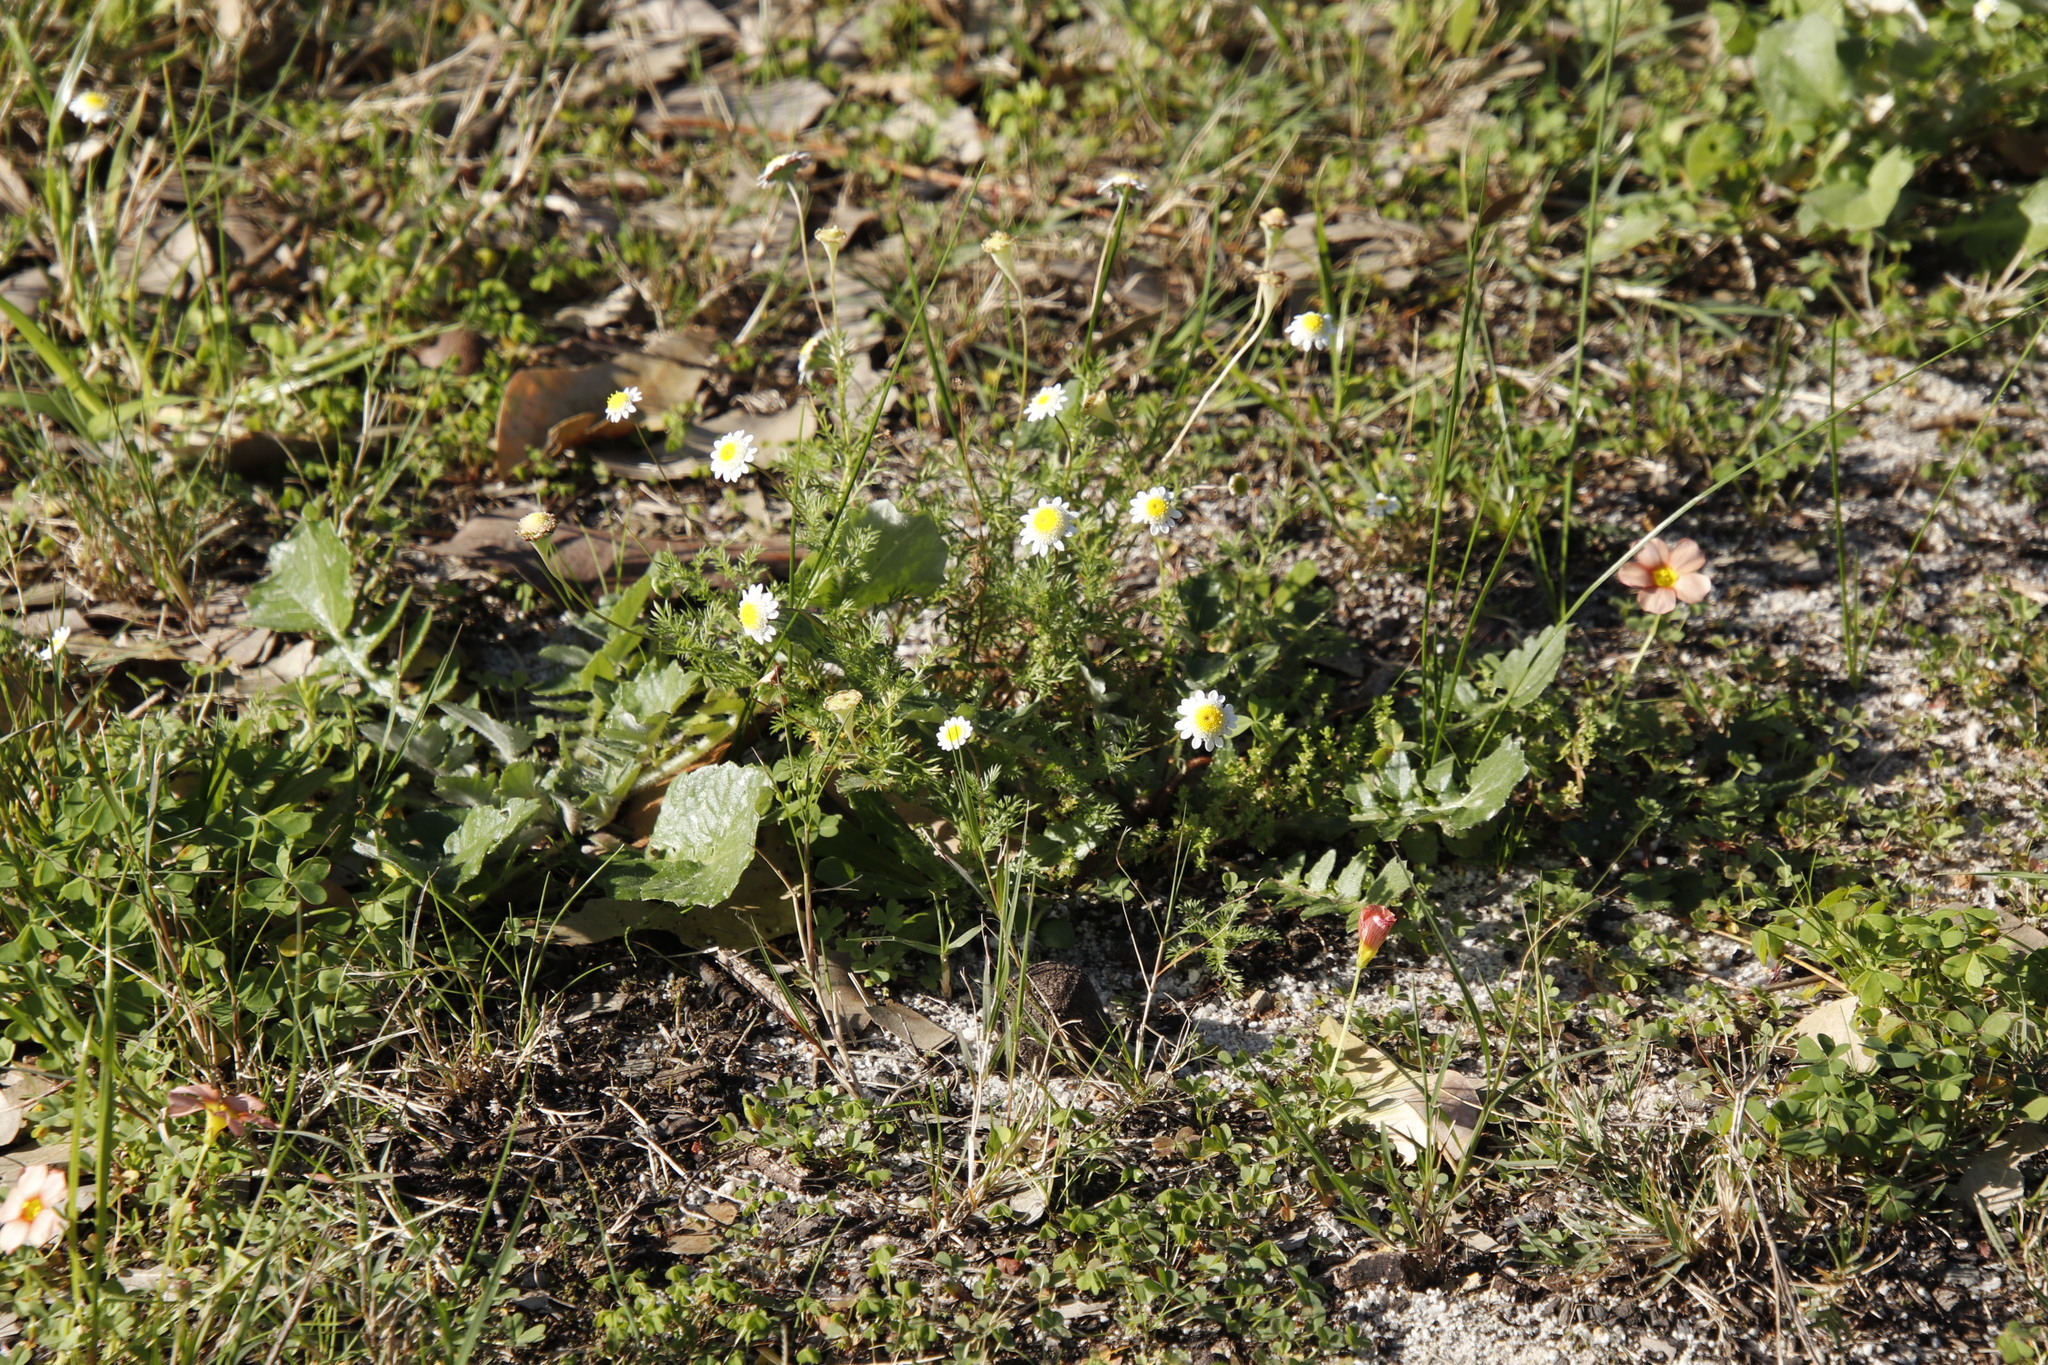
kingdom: Plantae
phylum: Tracheophyta
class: Magnoliopsida
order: Asterales
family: Asteraceae
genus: Cotula
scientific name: Cotula turbinata
